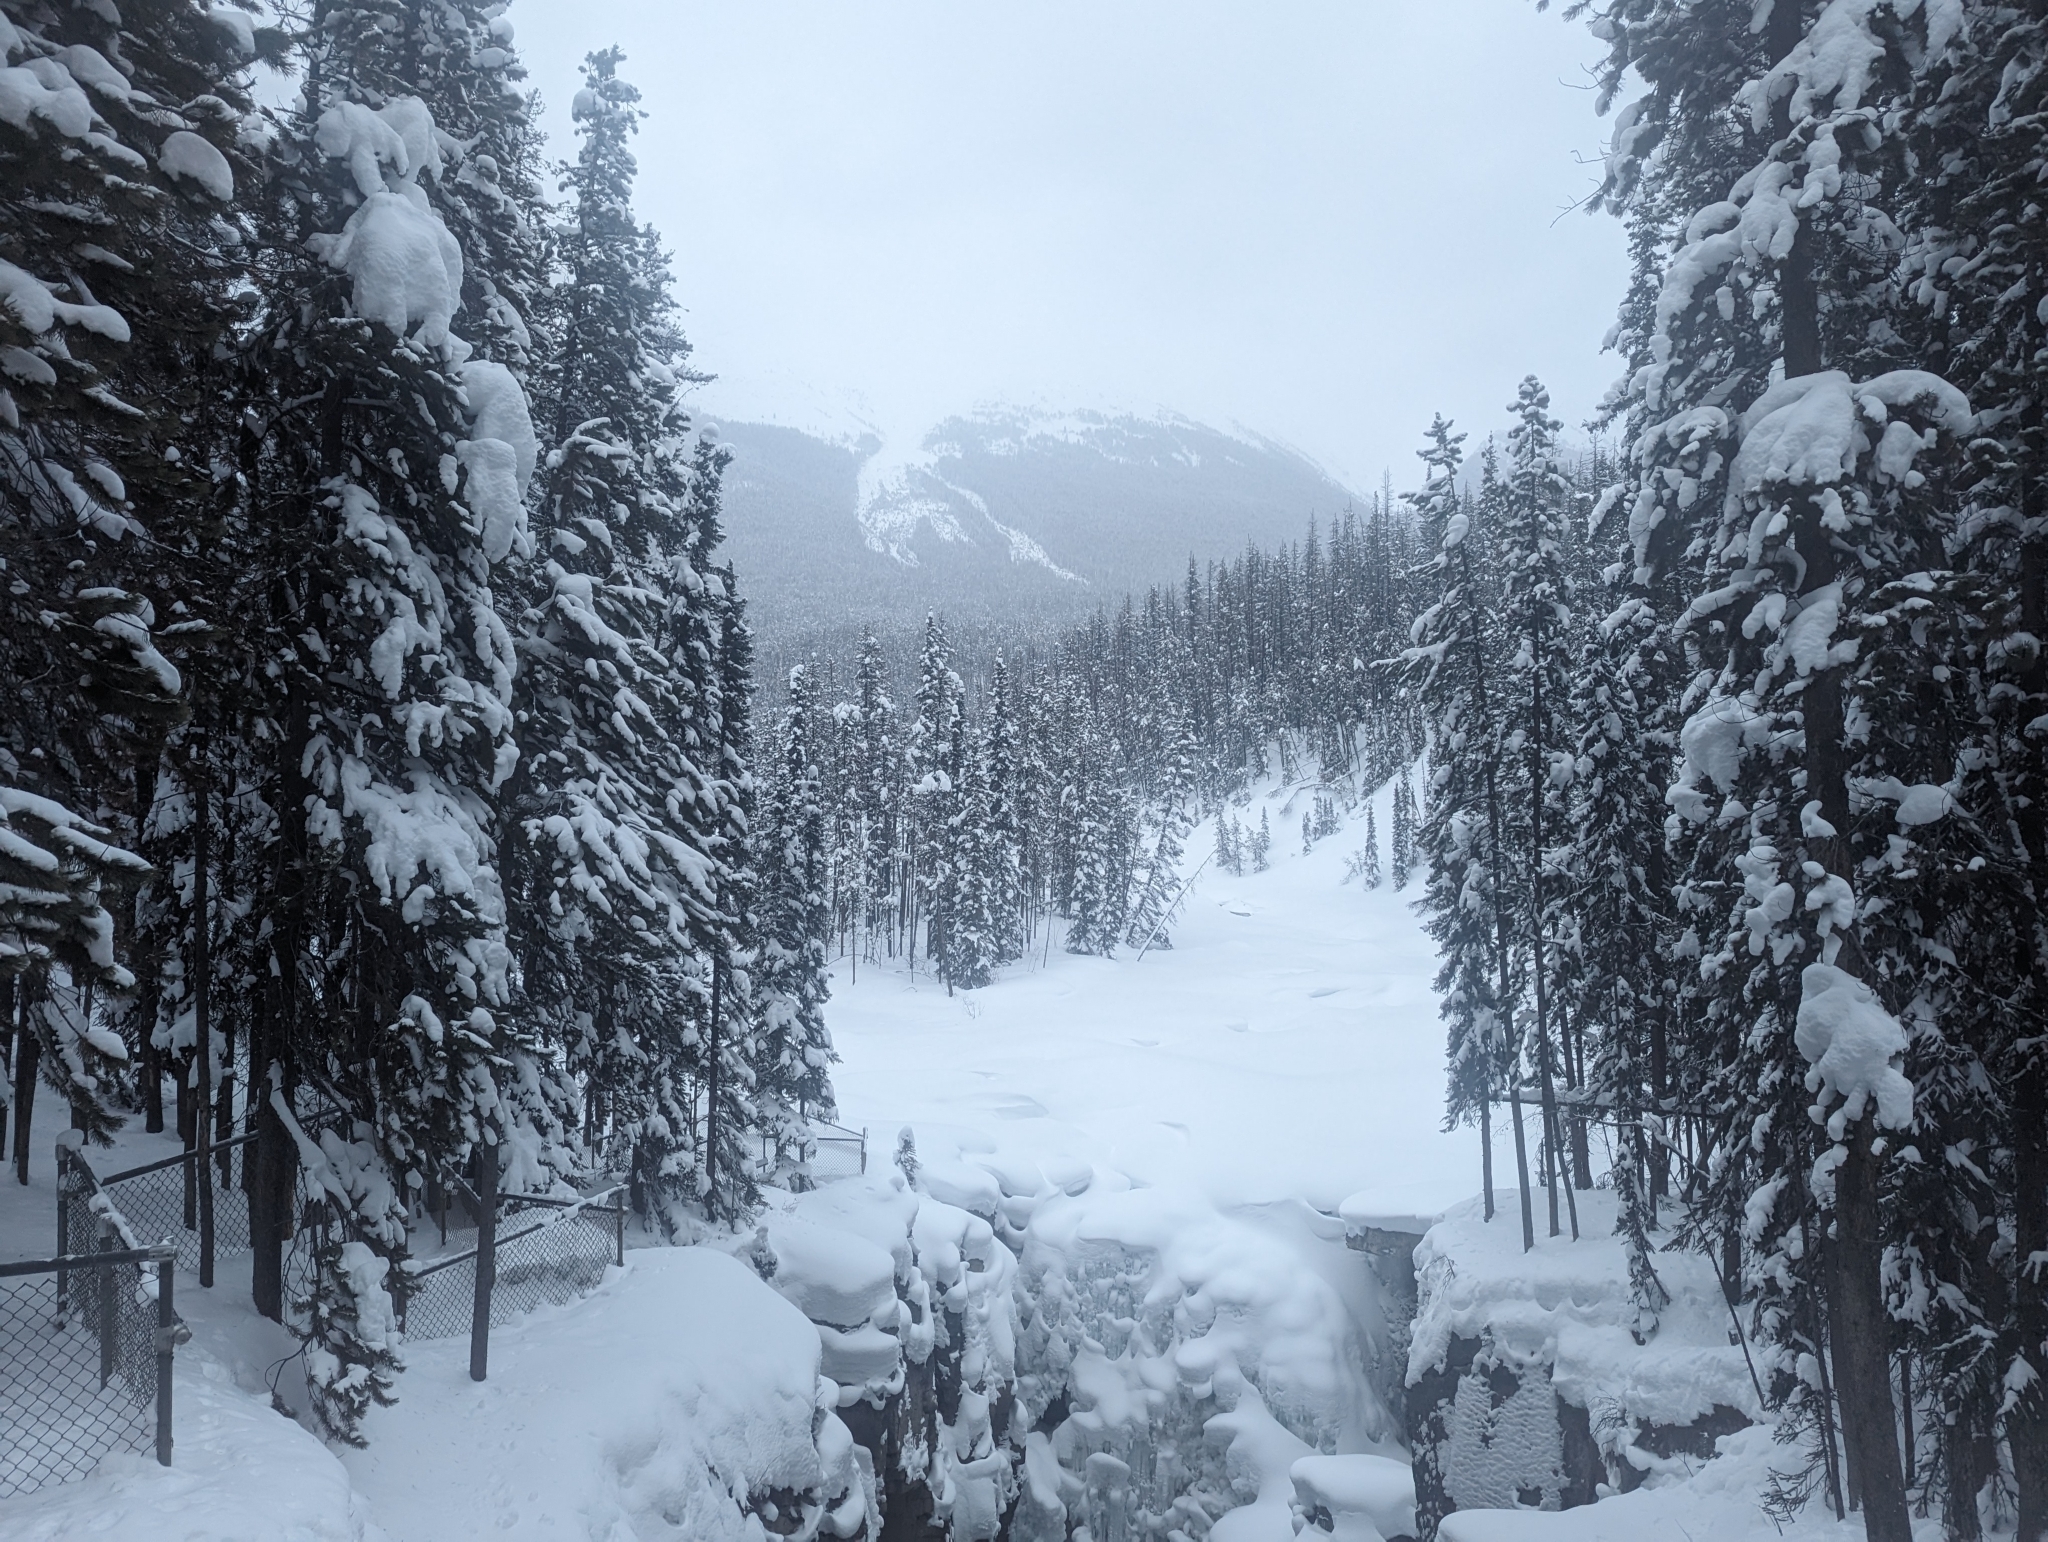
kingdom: Plantae
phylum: Tracheophyta
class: Pinopsida
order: Pinales
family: Pinaceae
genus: Pinus
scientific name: Pinus contorta
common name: Lodgepole pine
